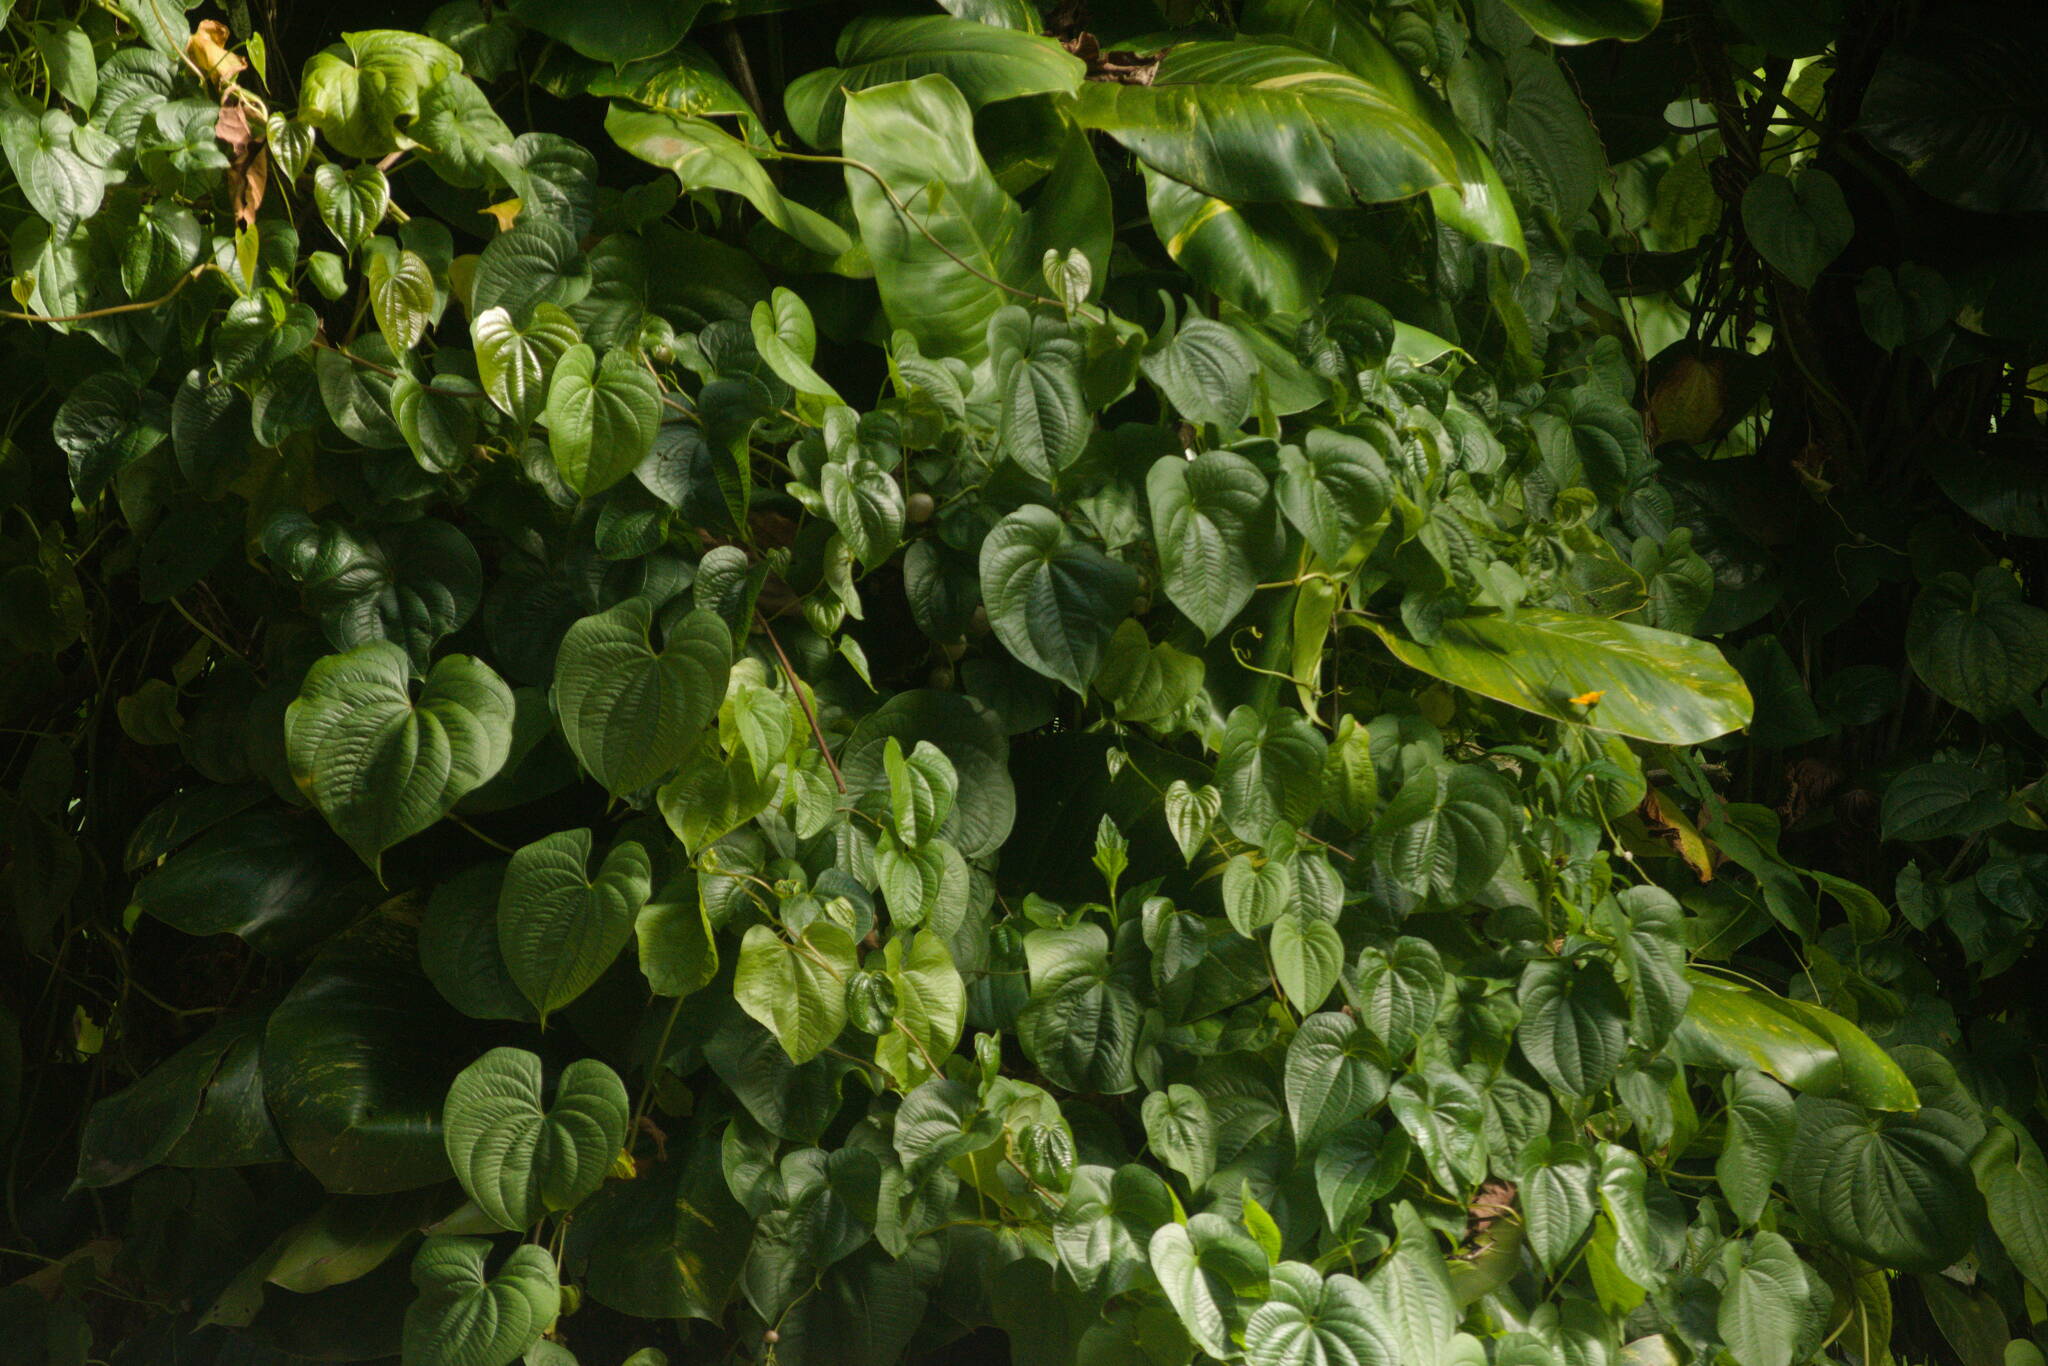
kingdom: Plantae
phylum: Tracheophyta
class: Liliopsida
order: Dioscoreales
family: Dioscoreaceae
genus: Dioscorea
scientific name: Dioscorea bulbifera
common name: Air yam
